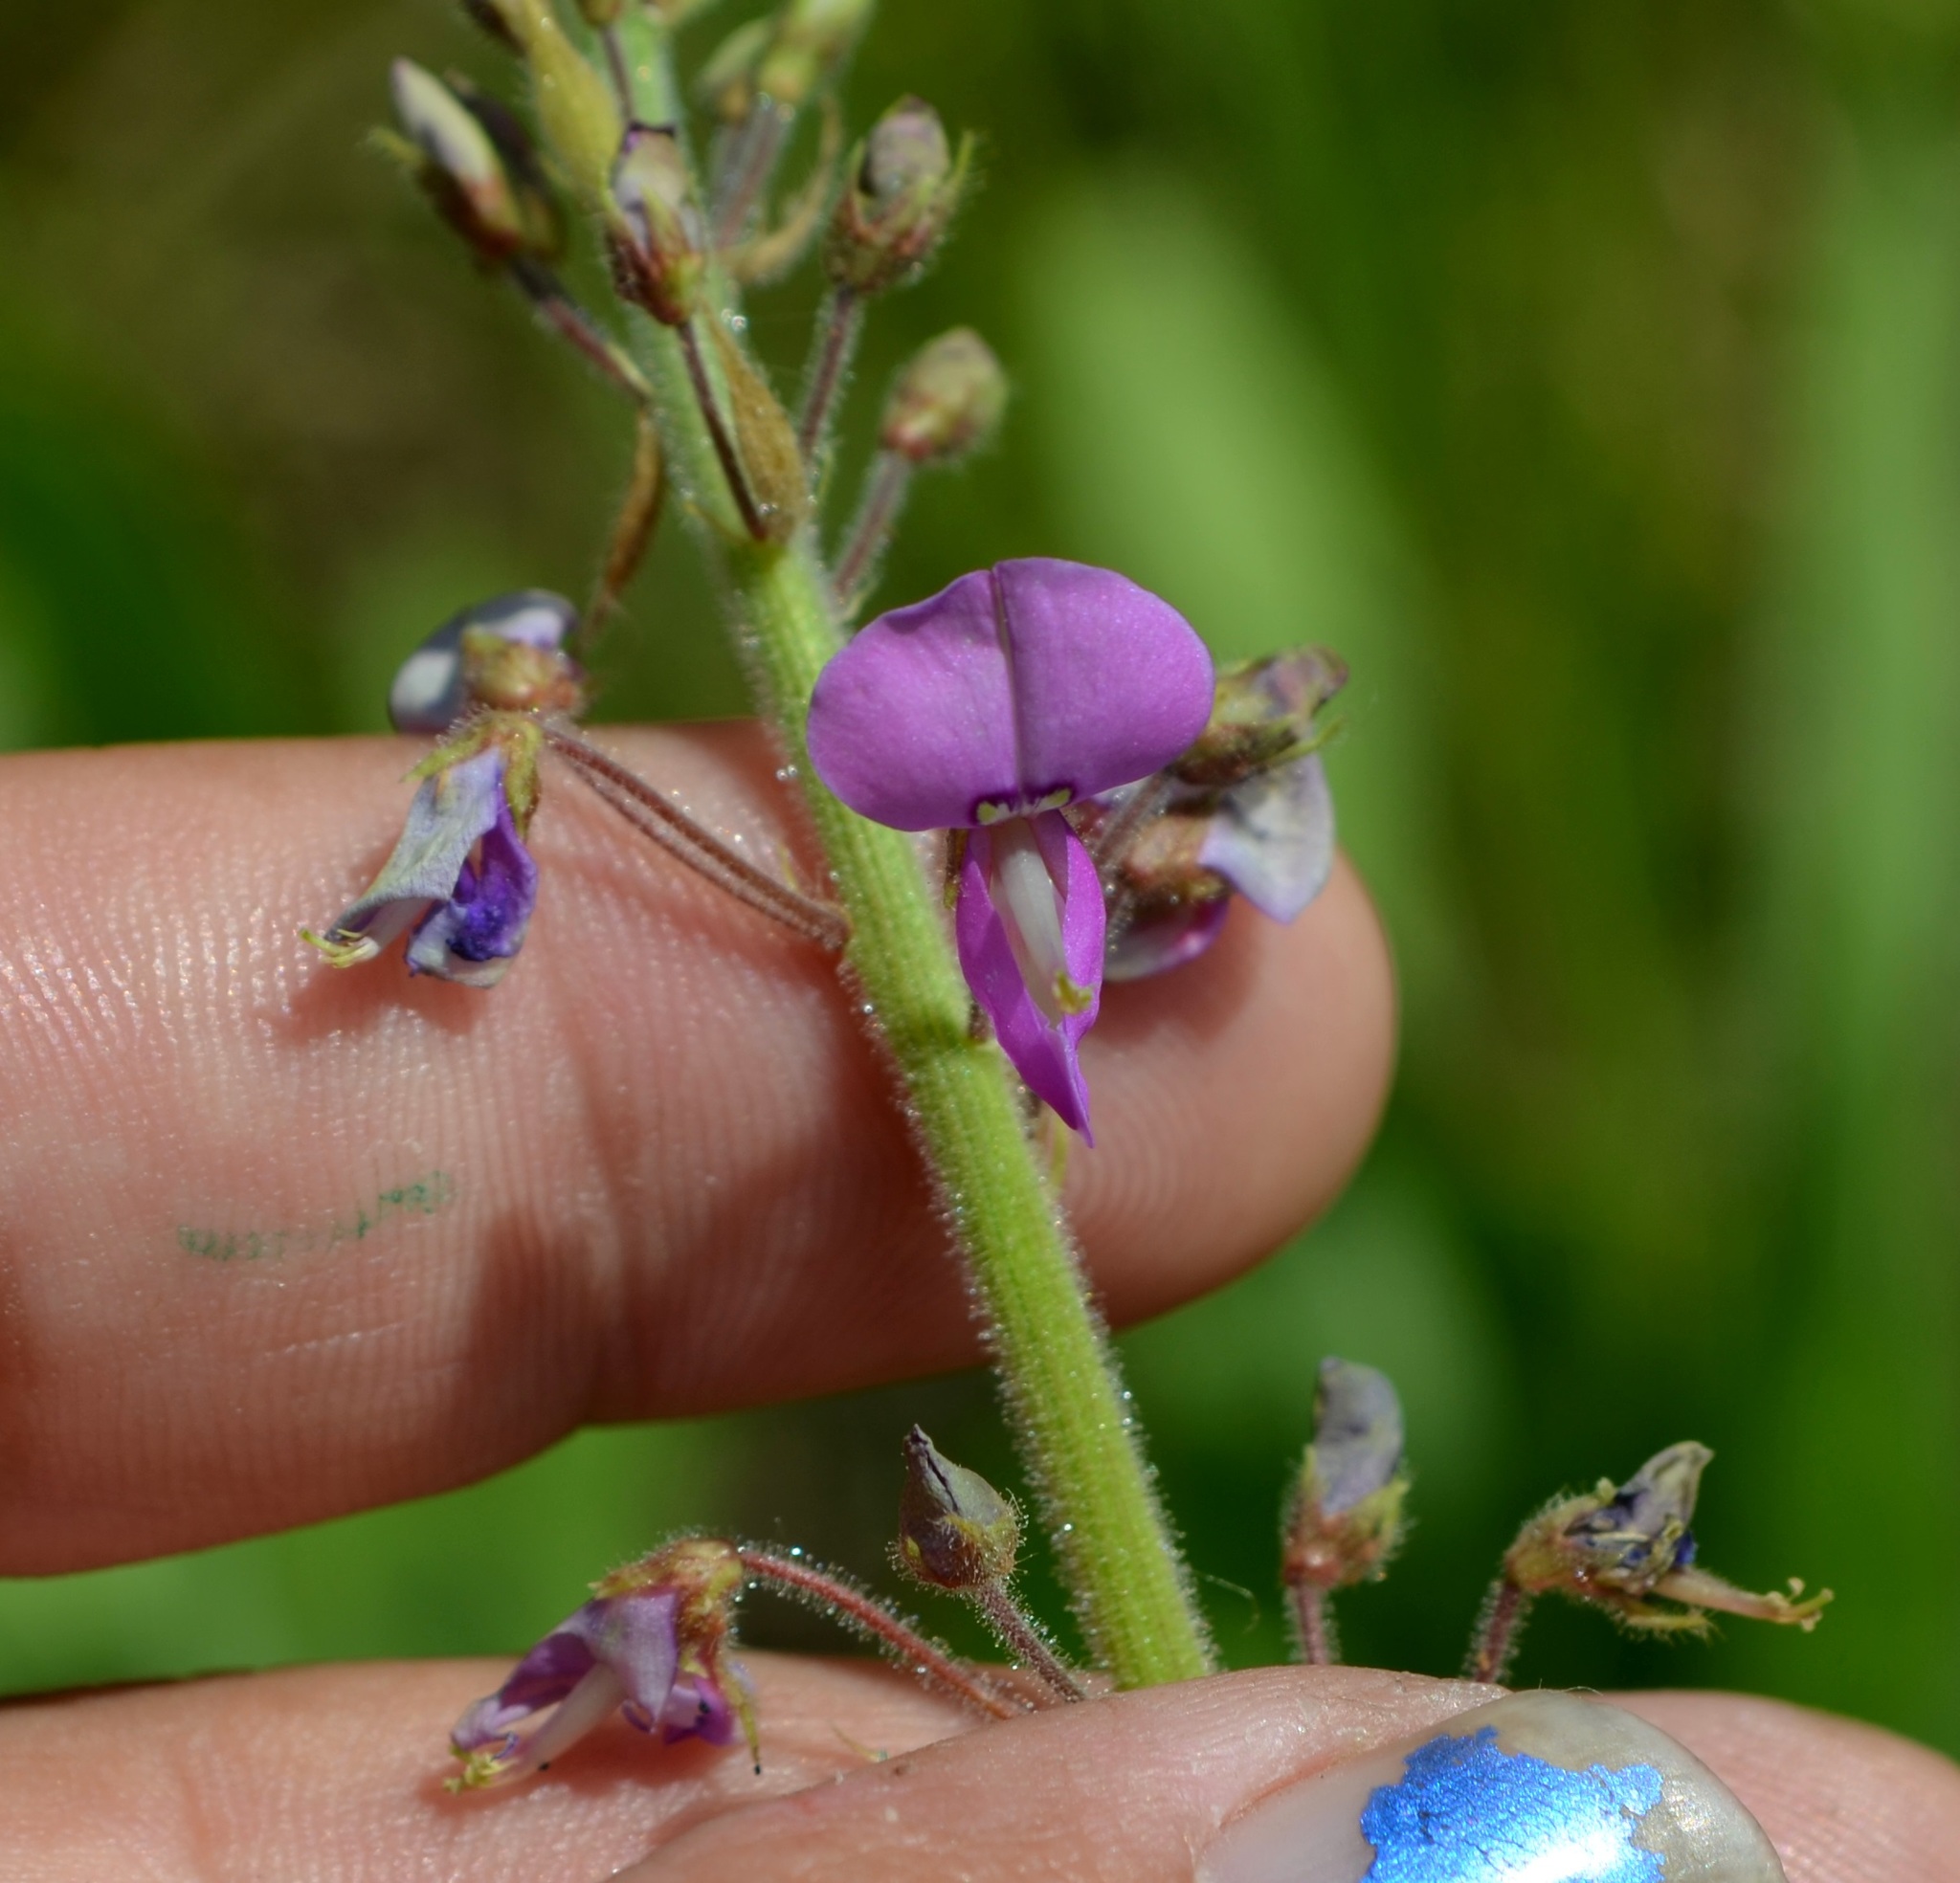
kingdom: Plantae
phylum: Tracheophyta
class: Magnoliopsida
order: Fabales
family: Fabaceae
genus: Desmodium
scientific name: Desmodium illinoense
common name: Illinois tick-clover
